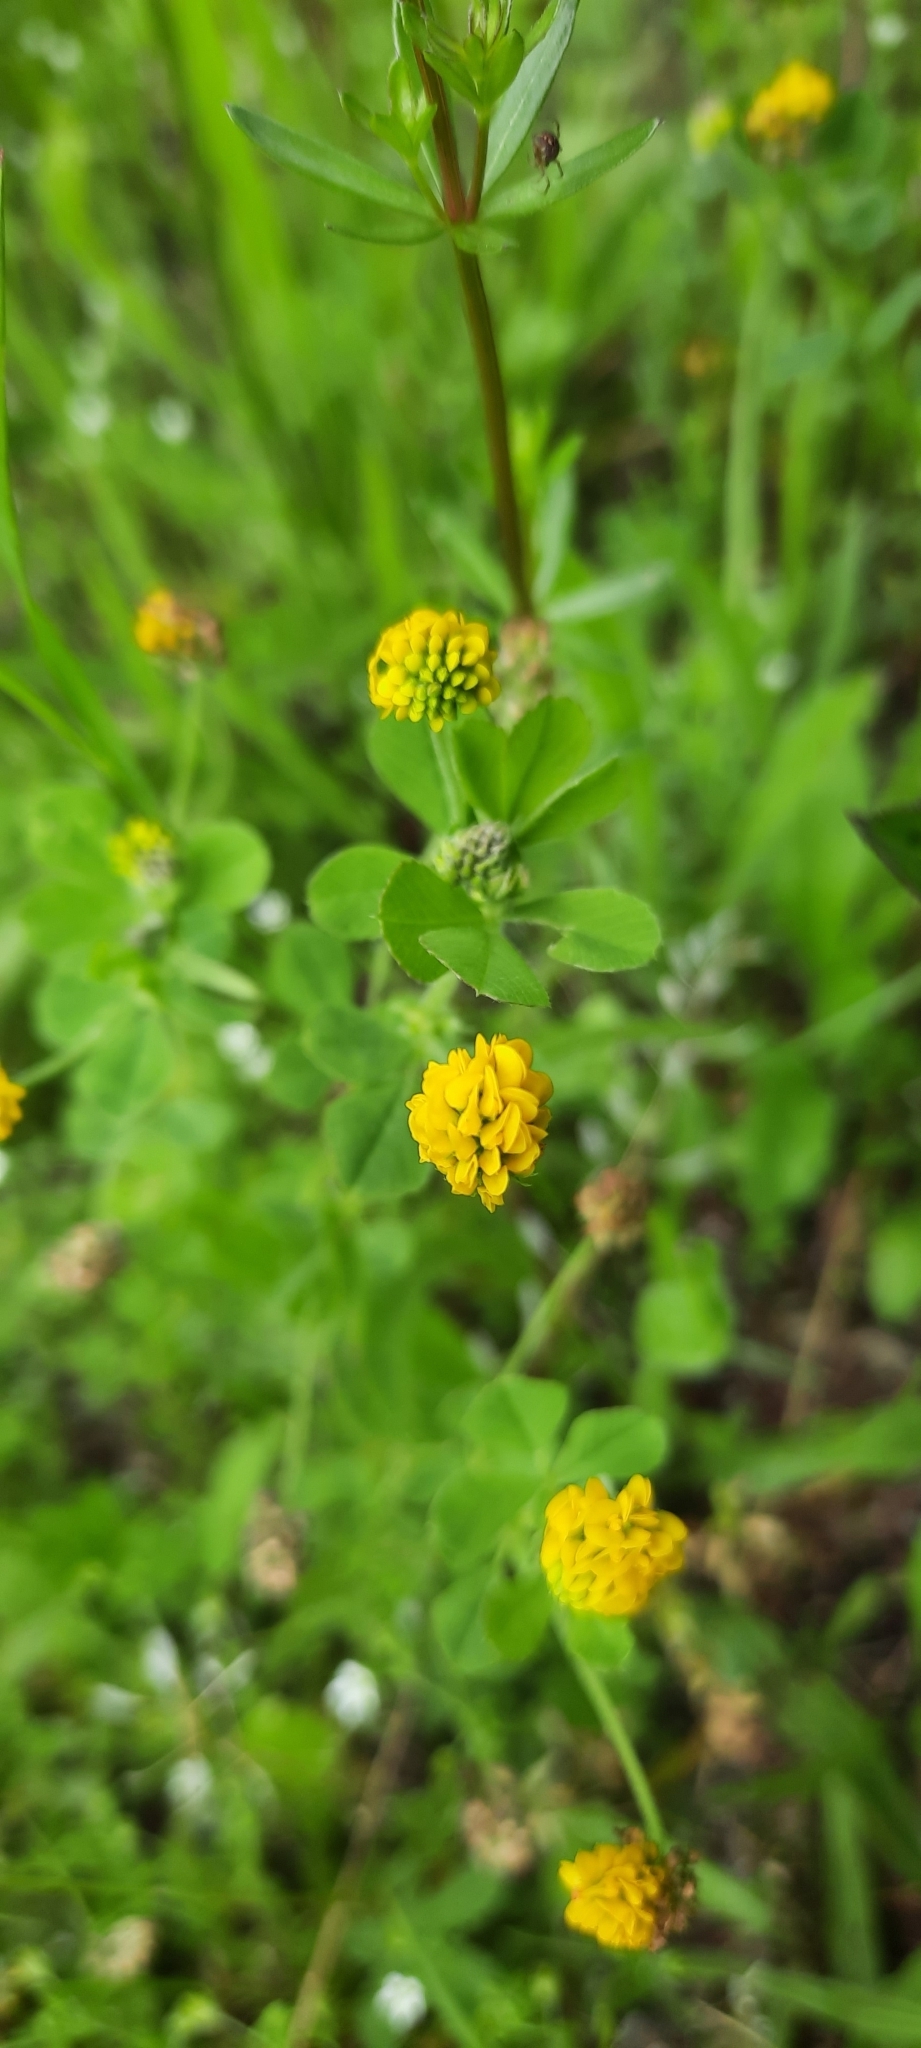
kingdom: Plantae
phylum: Tracheophyta
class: Magnoliopsida
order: Fabales
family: Fabaceae
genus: Medicago
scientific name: Medicago lupulina
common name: Black medick
